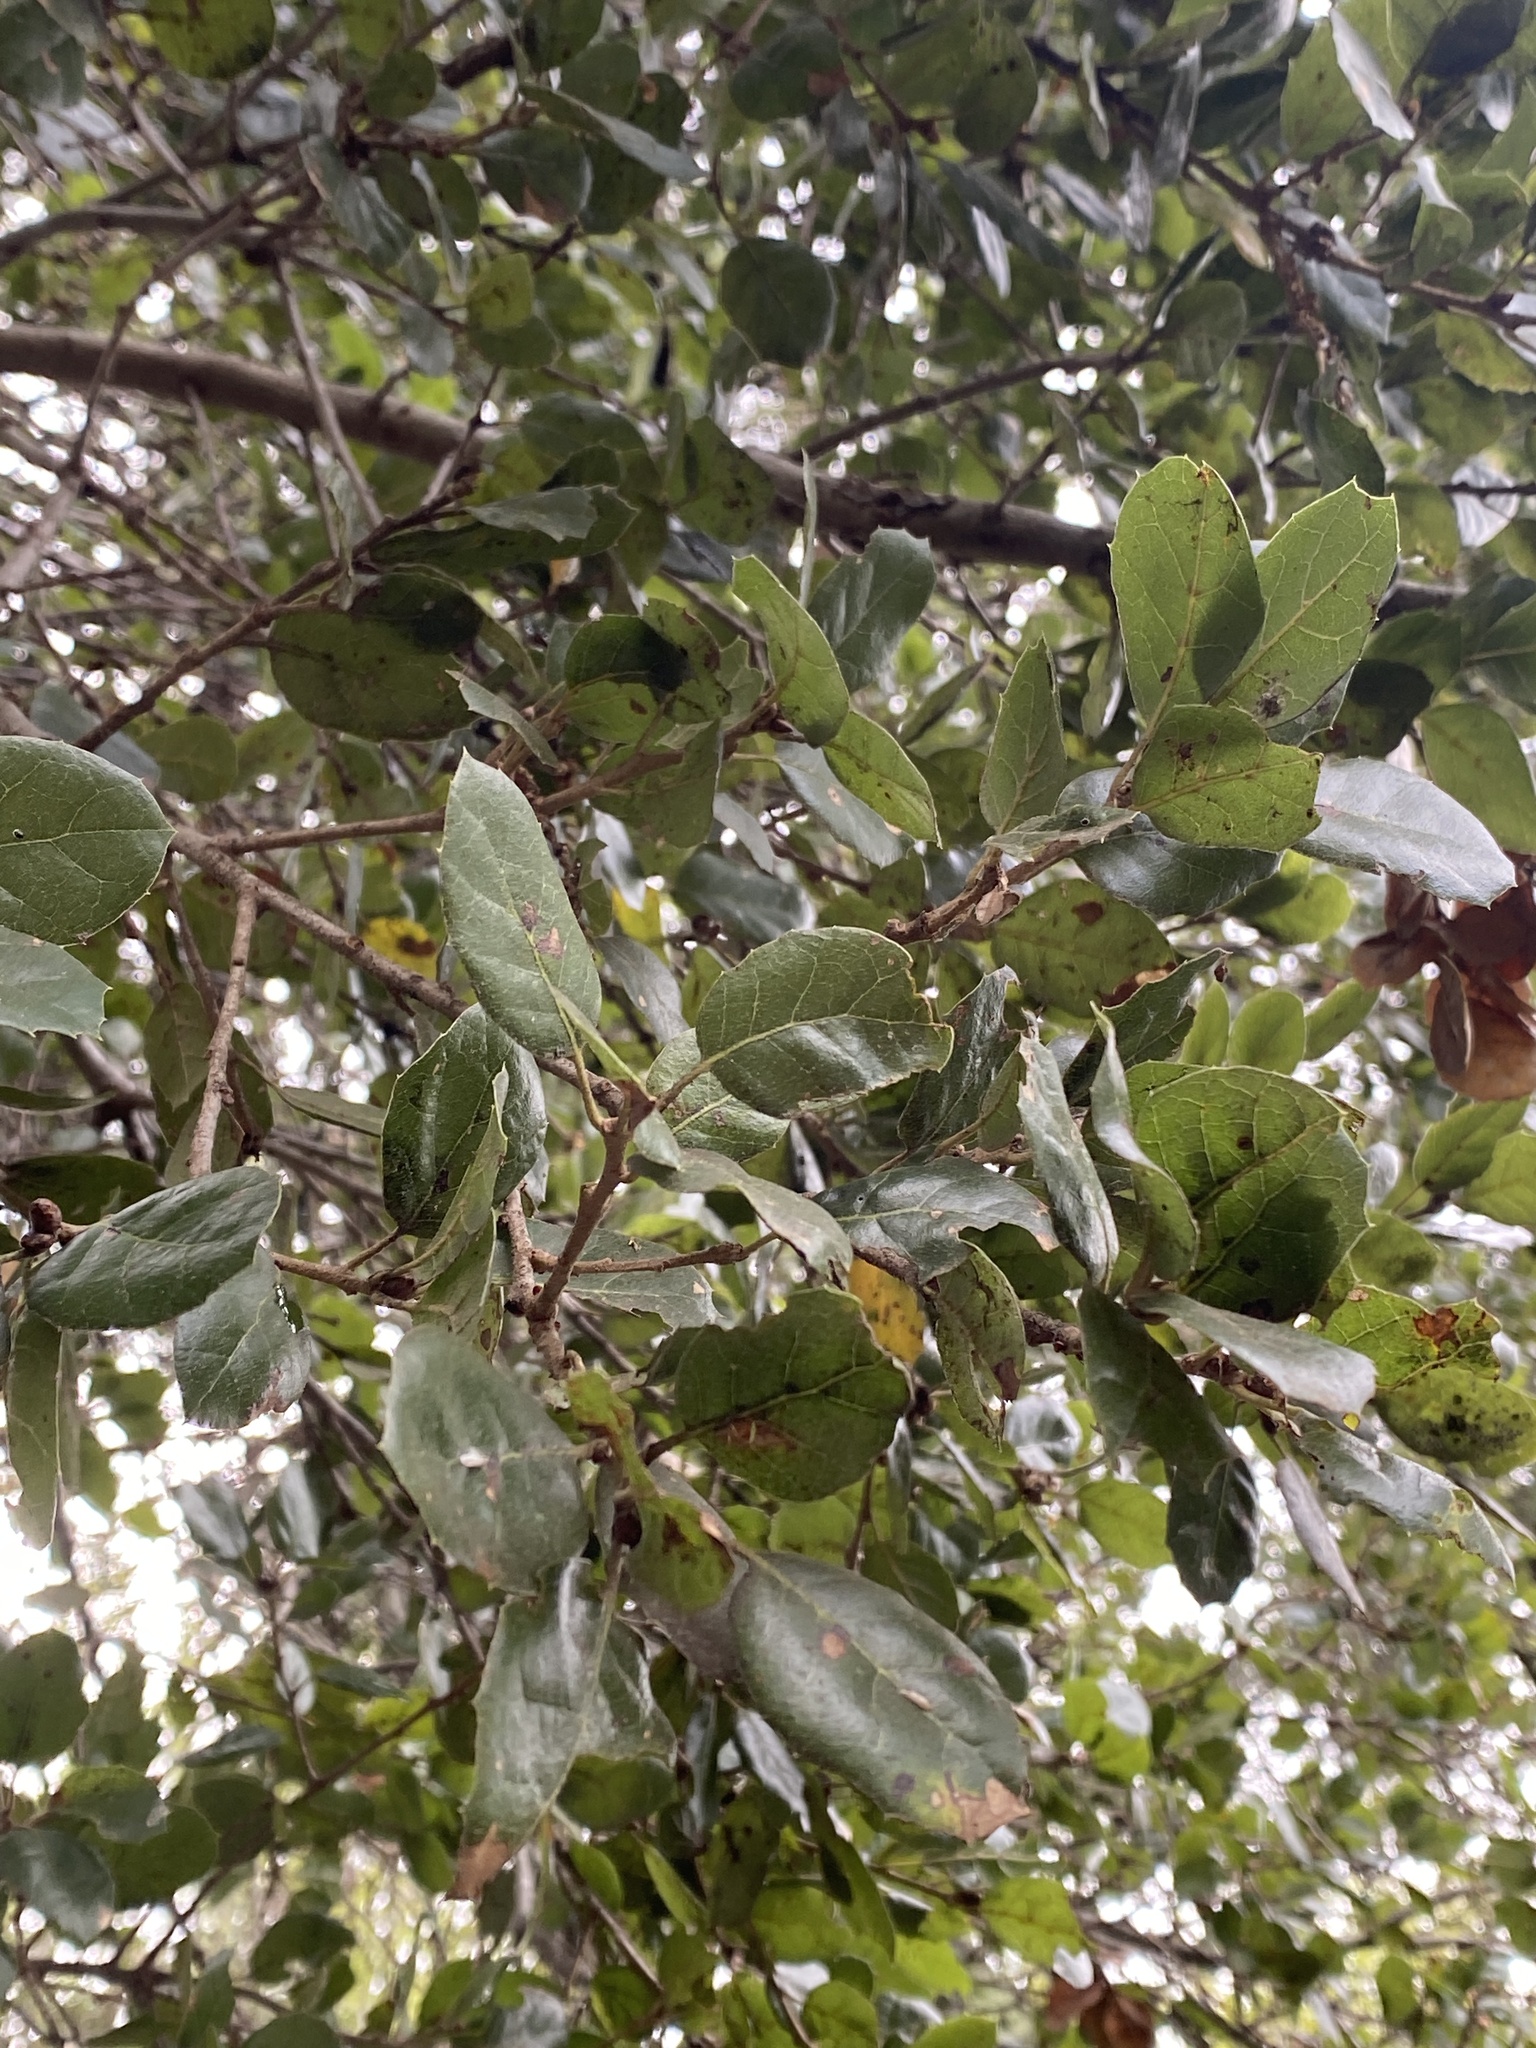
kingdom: Plantae
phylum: Tracheophyta
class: Magnoliopsida
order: Fagales
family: Fagaceae
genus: Quercus
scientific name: Quercus agrifolia
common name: California live oak
